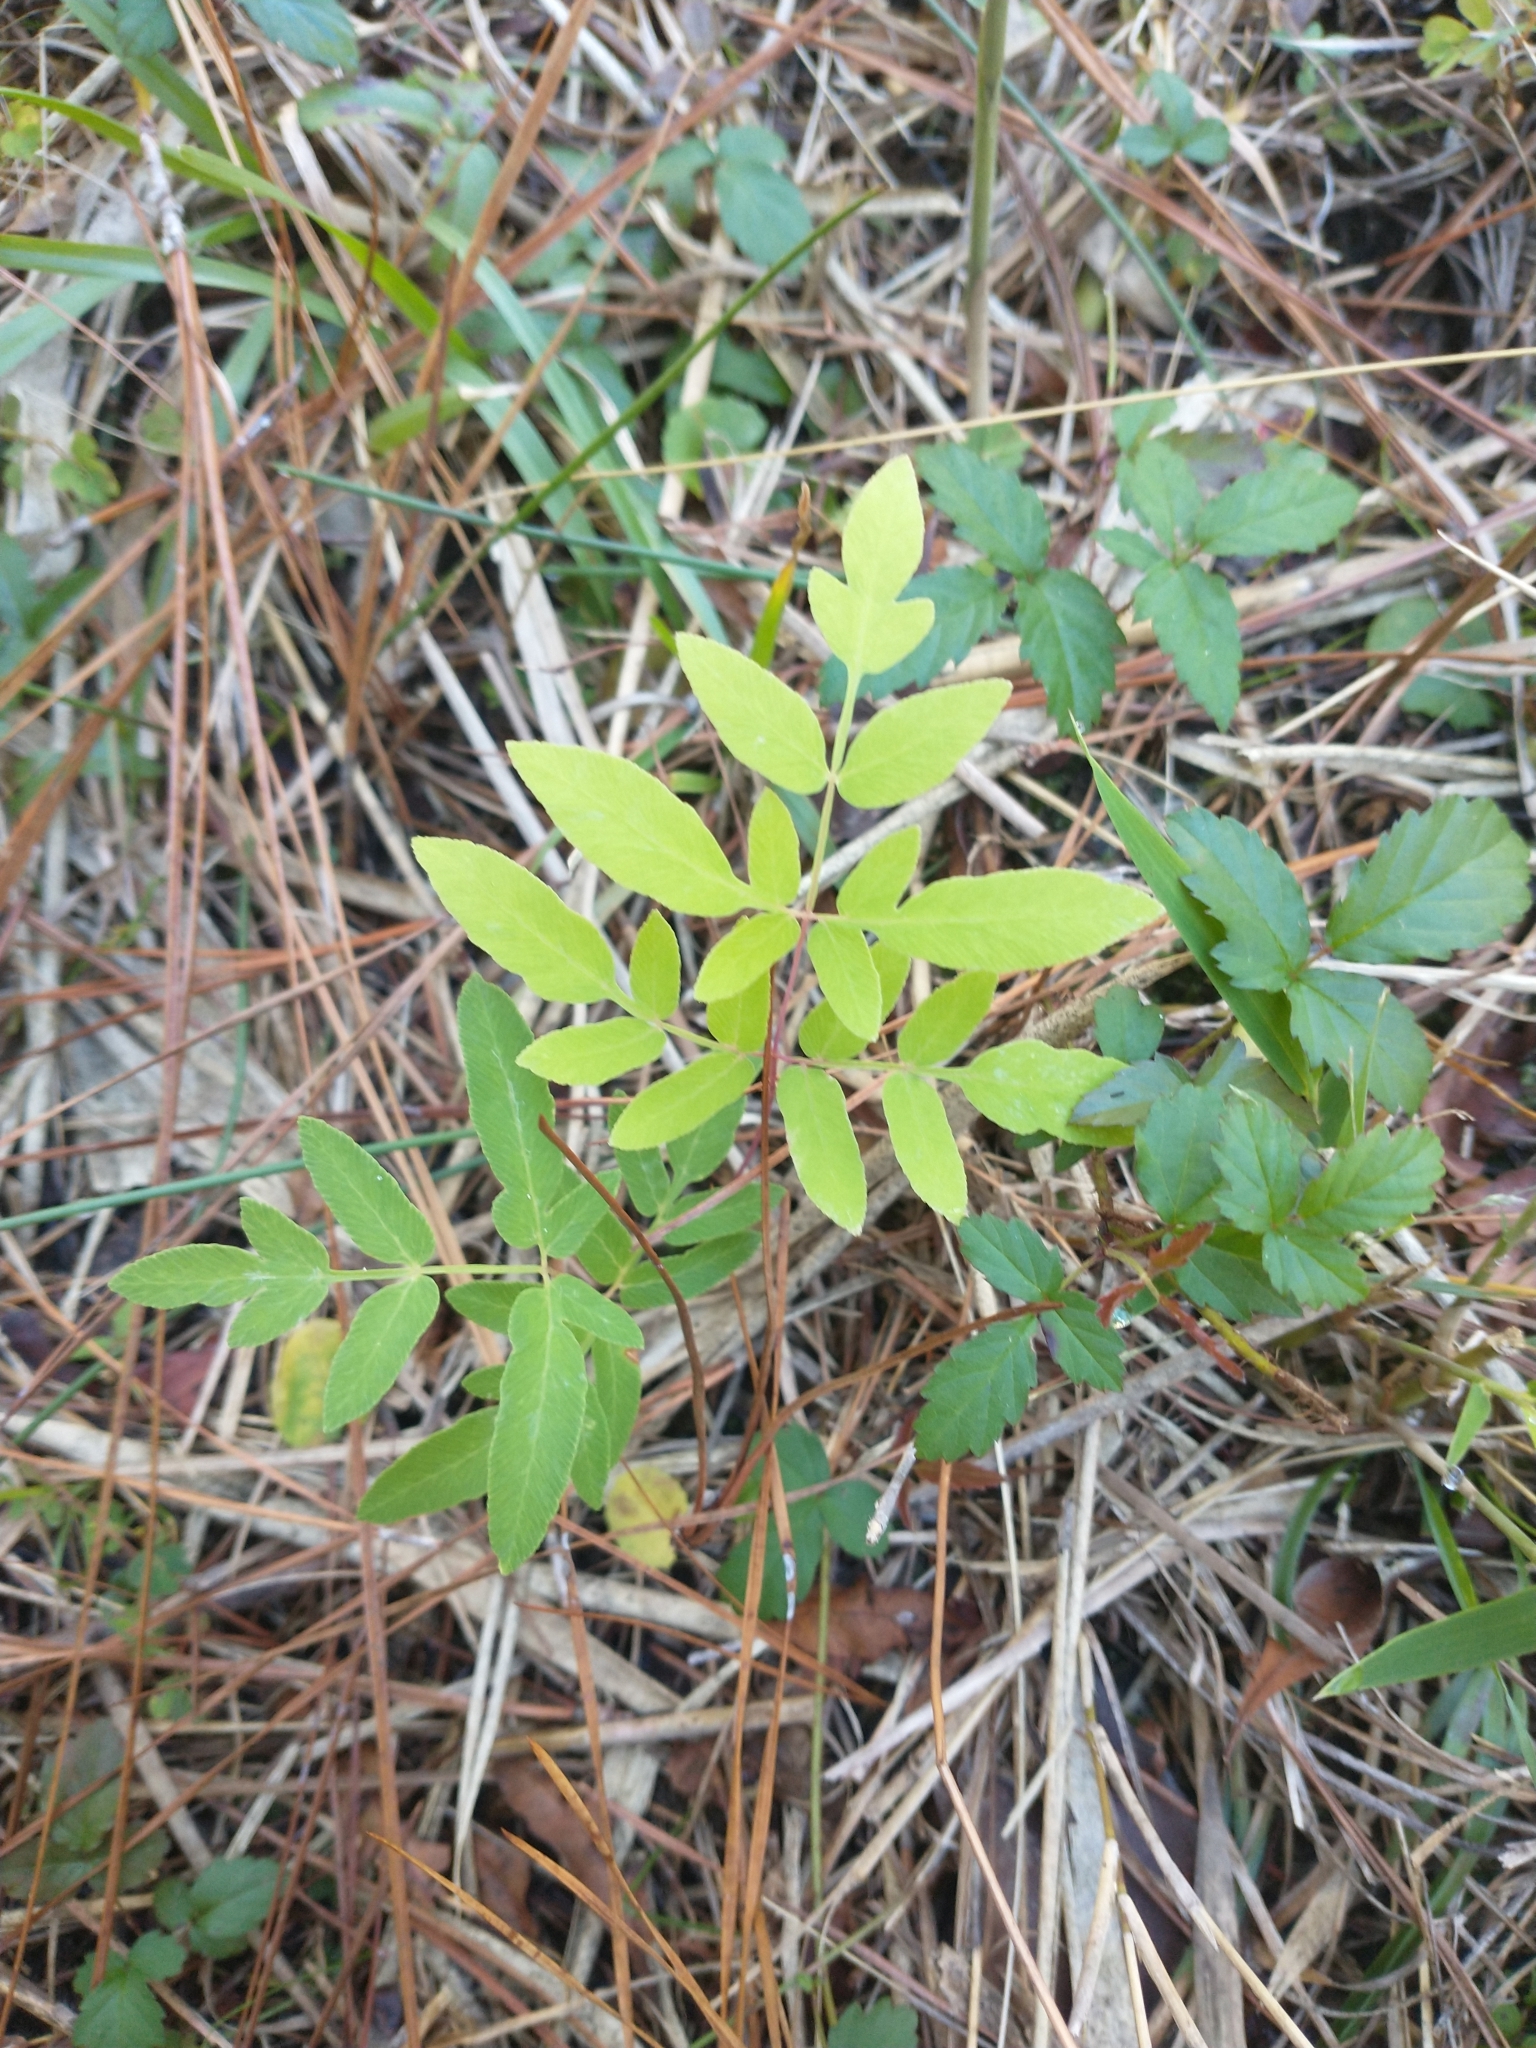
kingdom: Plantae
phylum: Tracheophyta
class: Polypodiopsida
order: Osmundales
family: Osmundaceae
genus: Osmunda
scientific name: Osmunda spectabilis
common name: American royal fern
